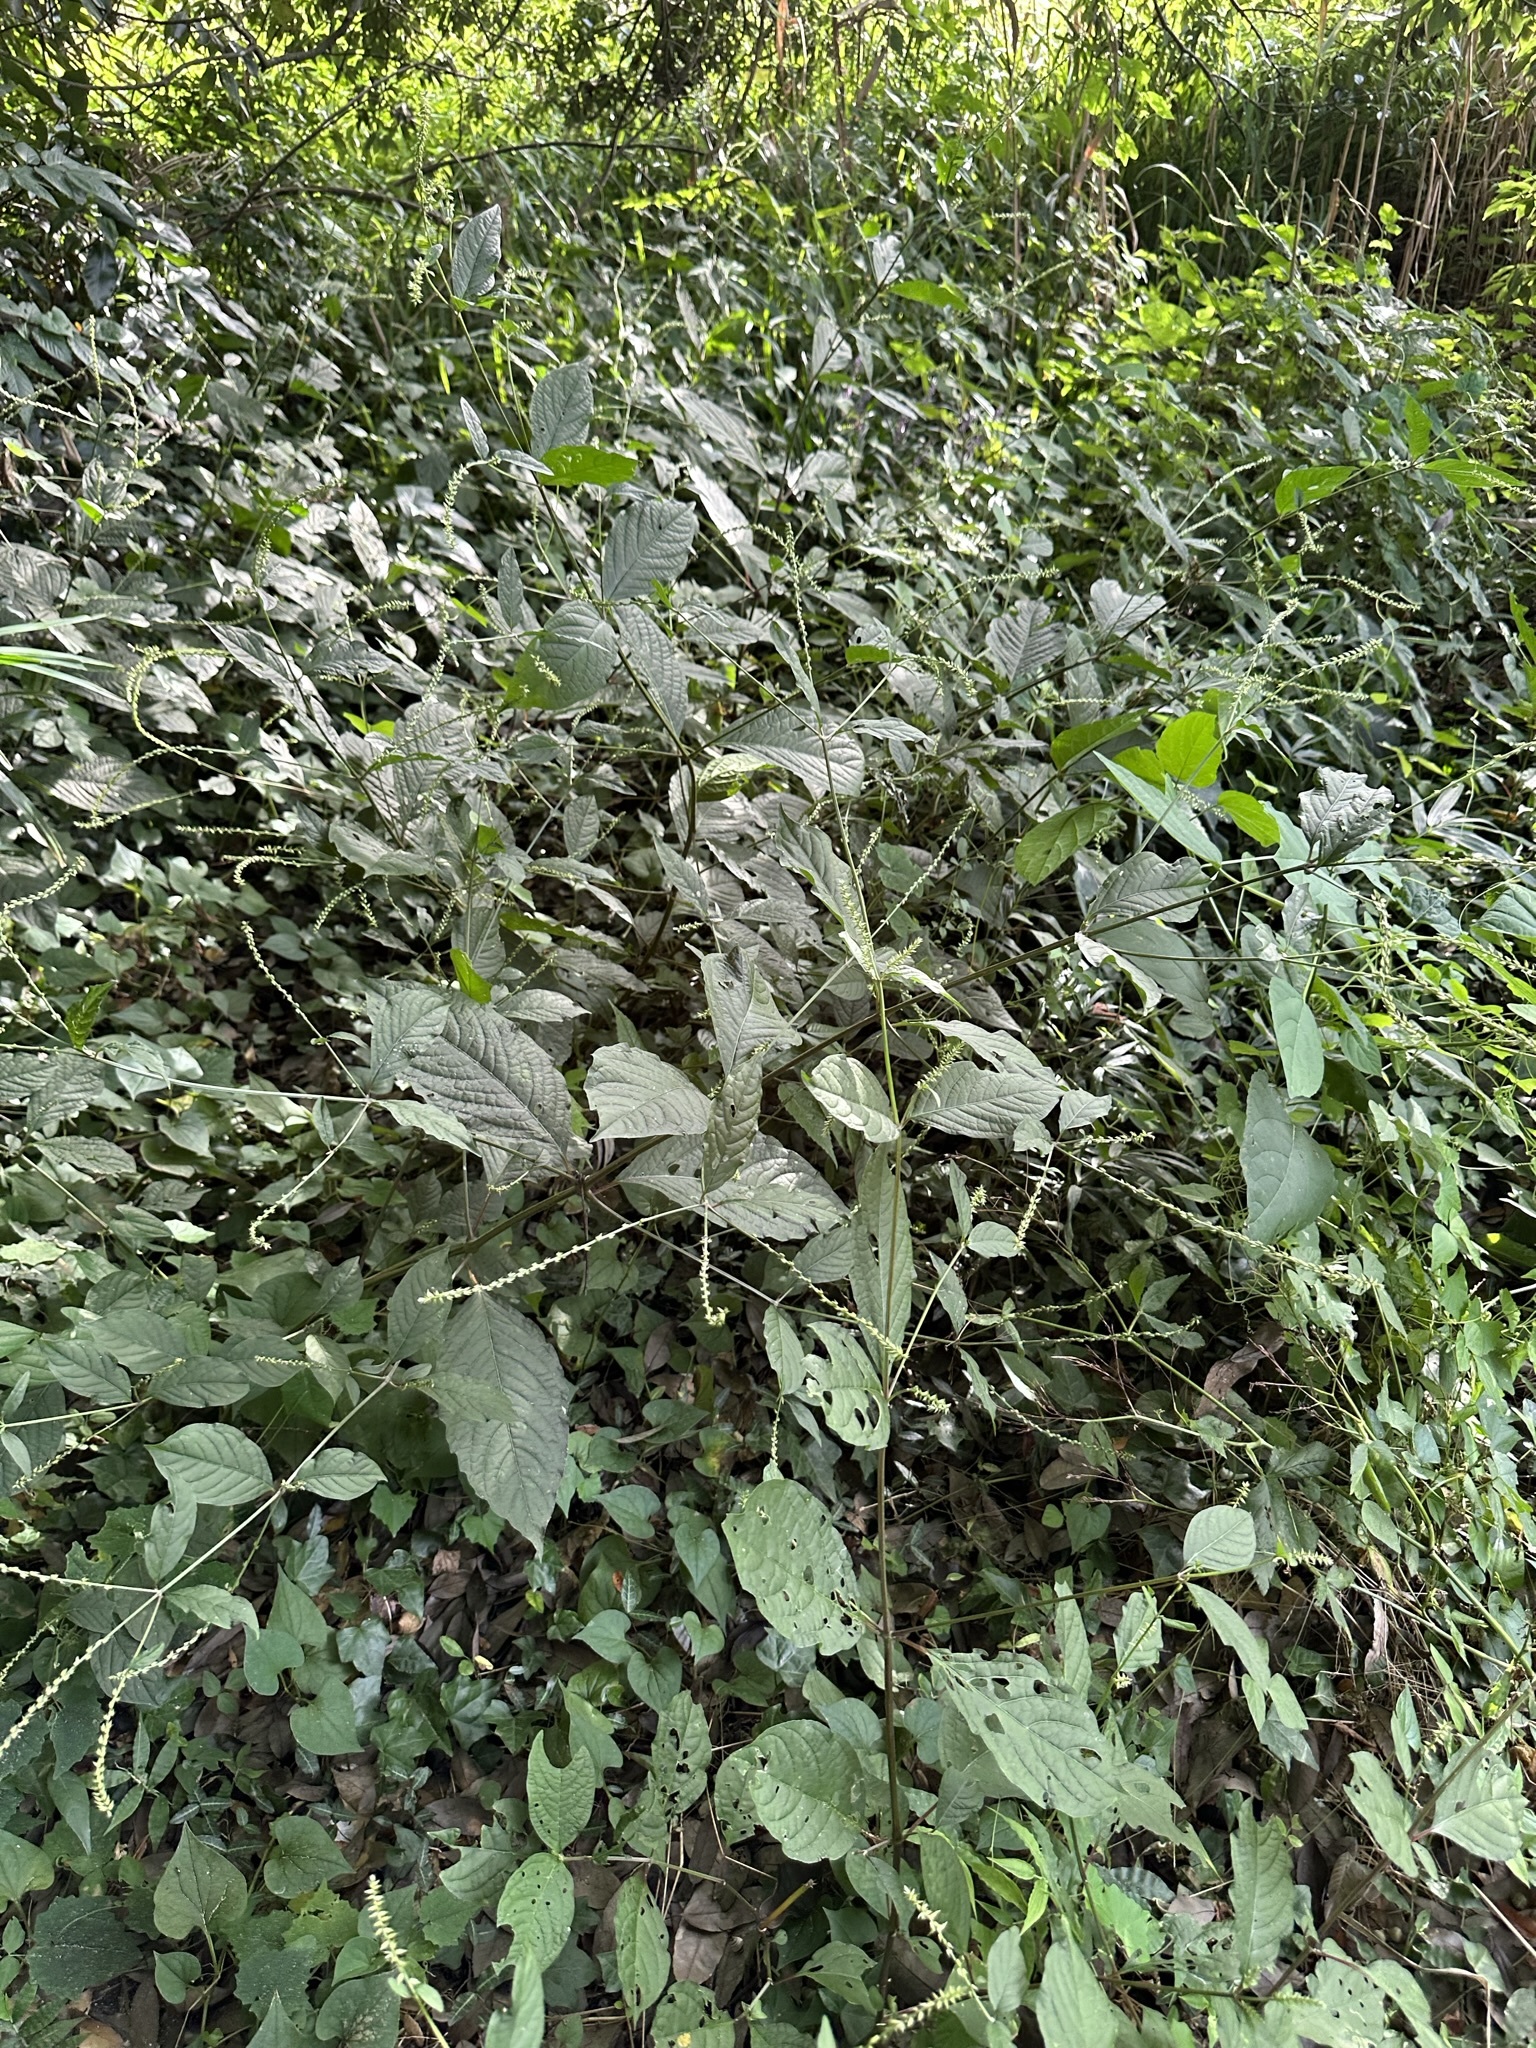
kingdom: Plantae
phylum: Tracheophyta
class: Magnoliopsida
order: Caryophyllales
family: Amaranthaceae
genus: Achyranthes
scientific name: Achyranthes bidentata
